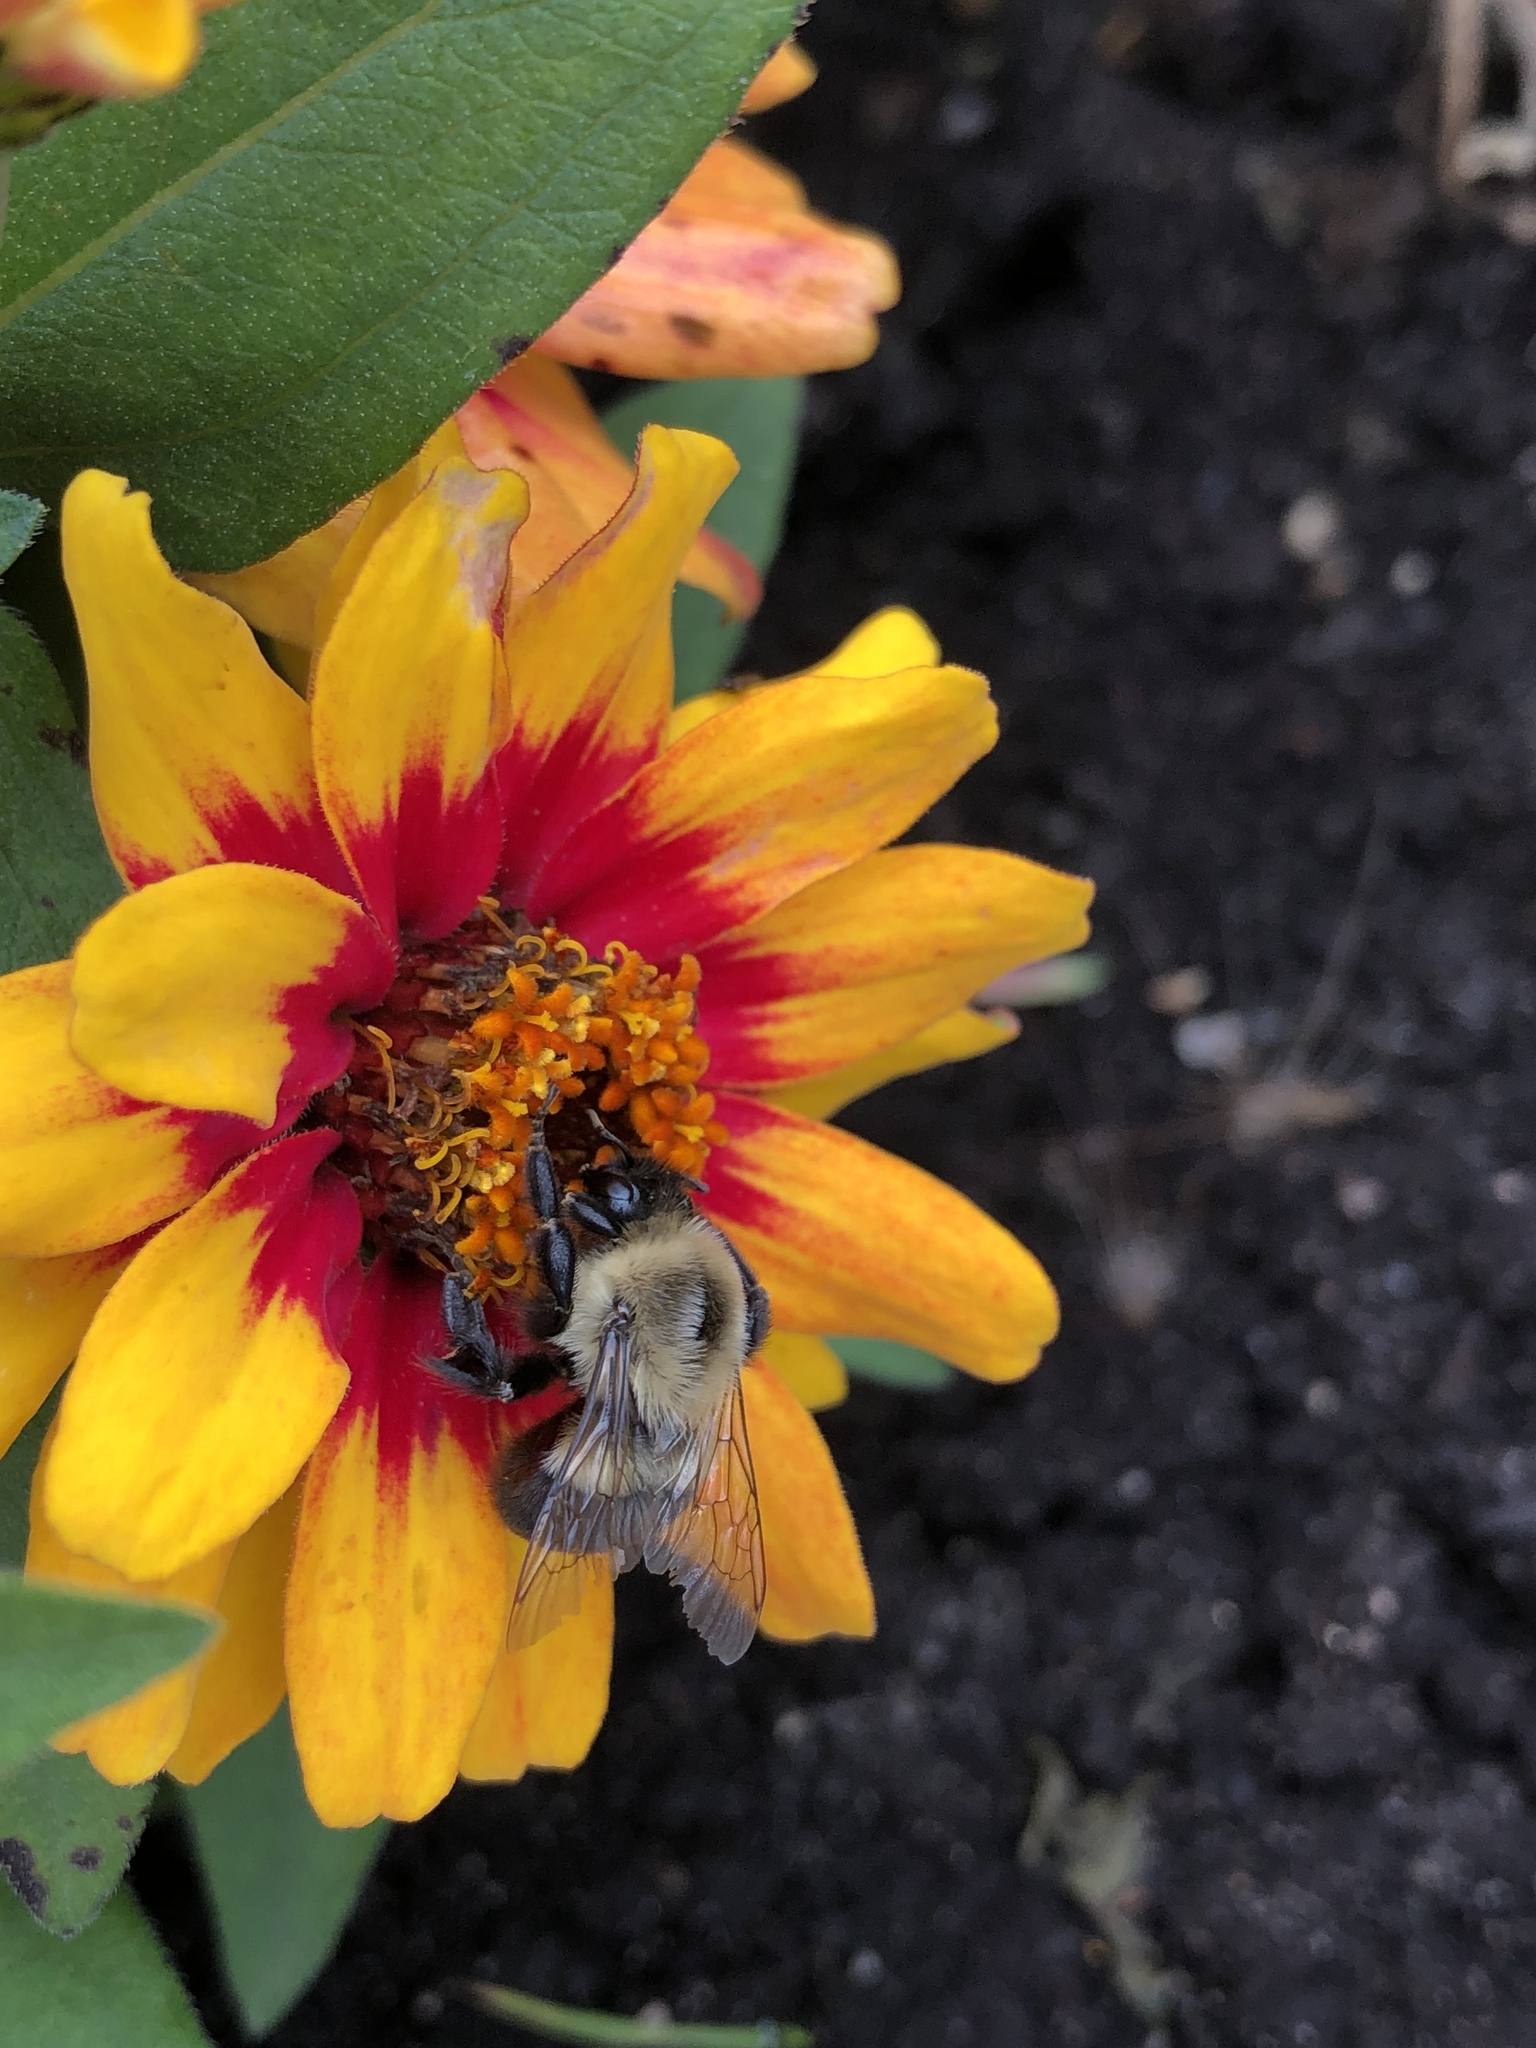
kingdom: Animalia
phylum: Arthropoda
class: Insecta
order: Hymenoptera
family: Apidae
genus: Bombus
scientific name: Bombus impatiens
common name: Common eastern bumble bee
